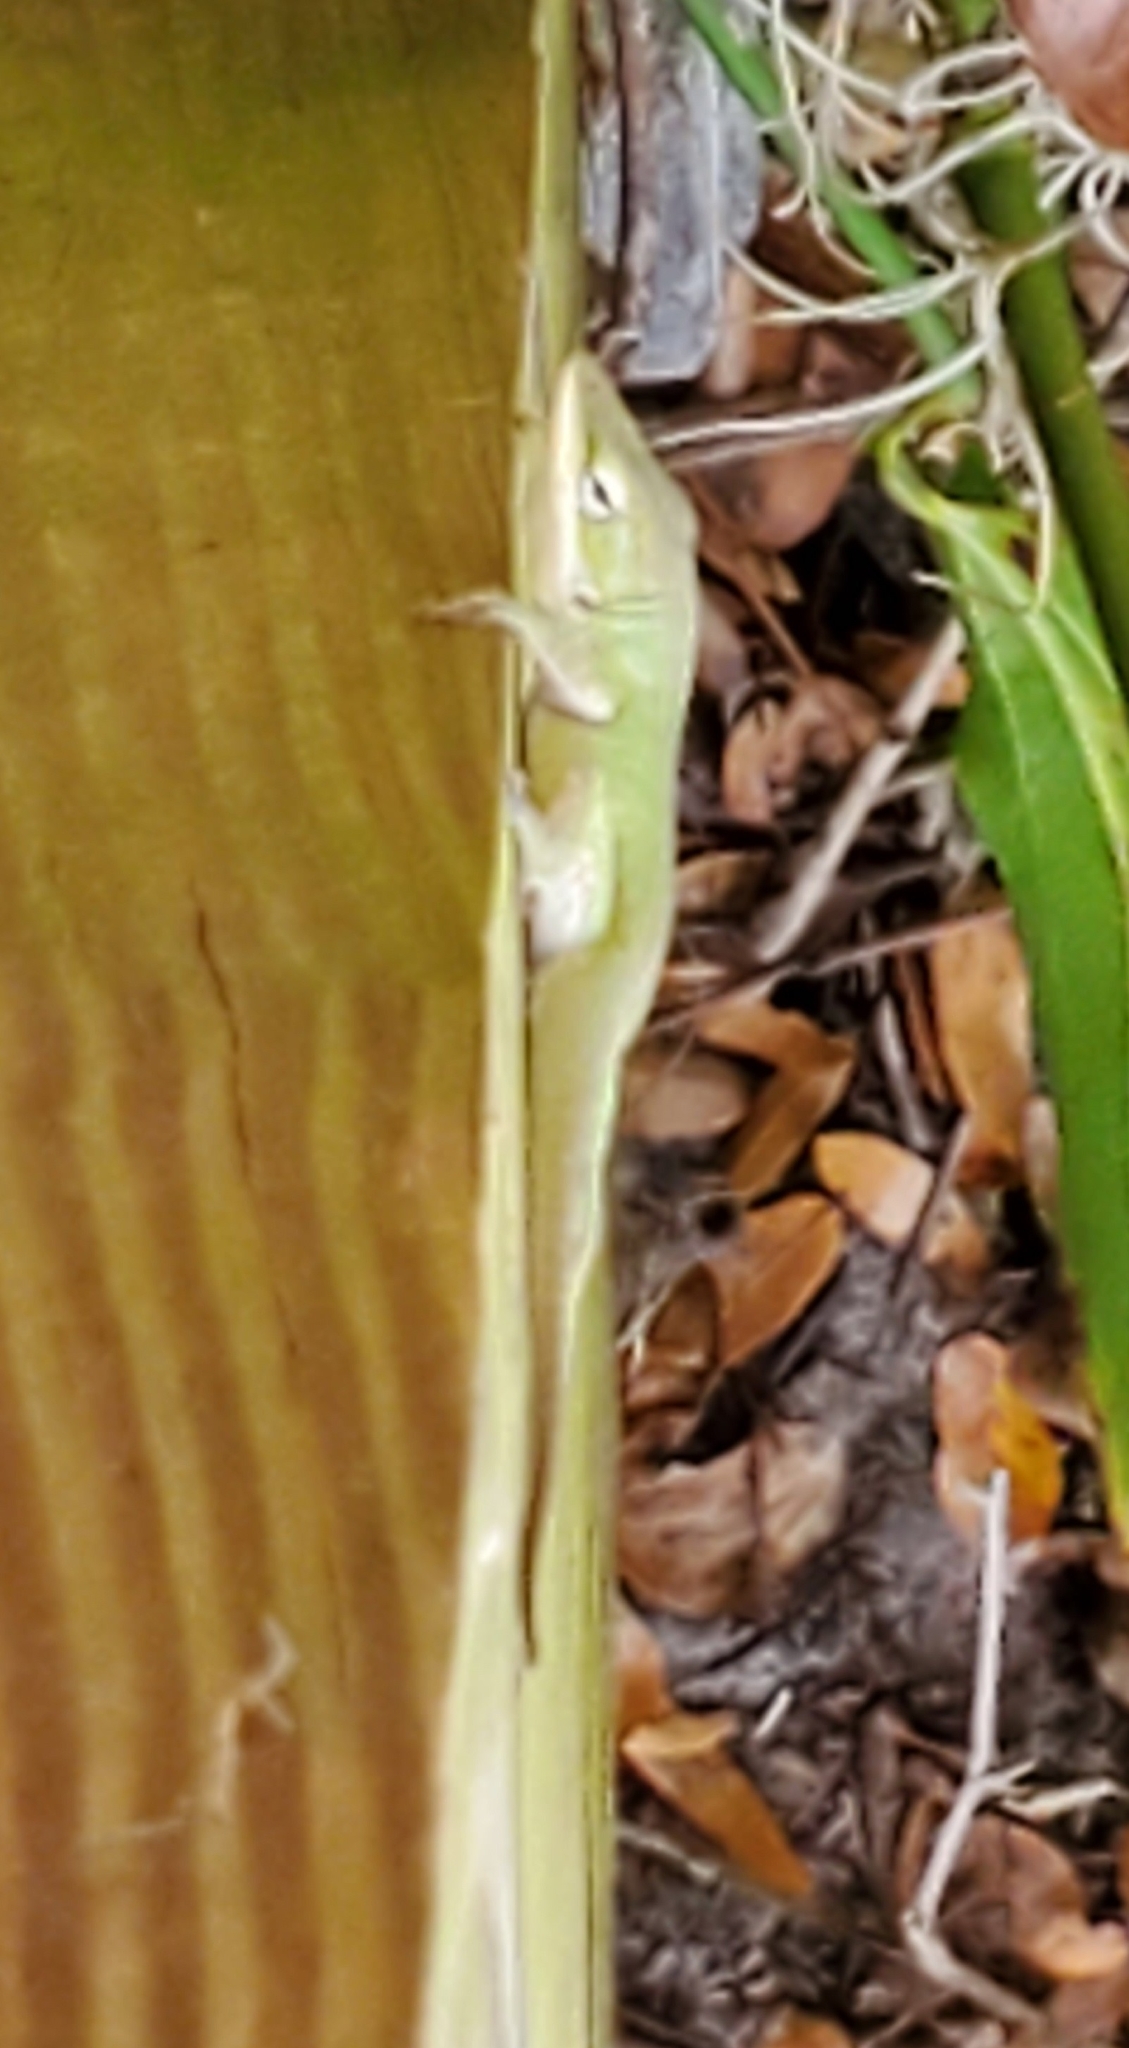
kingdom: Animalia
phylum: Chordata
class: Squamata
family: Dactyloidae
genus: Anolis
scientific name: Anolis carolinensis
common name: Green anole
